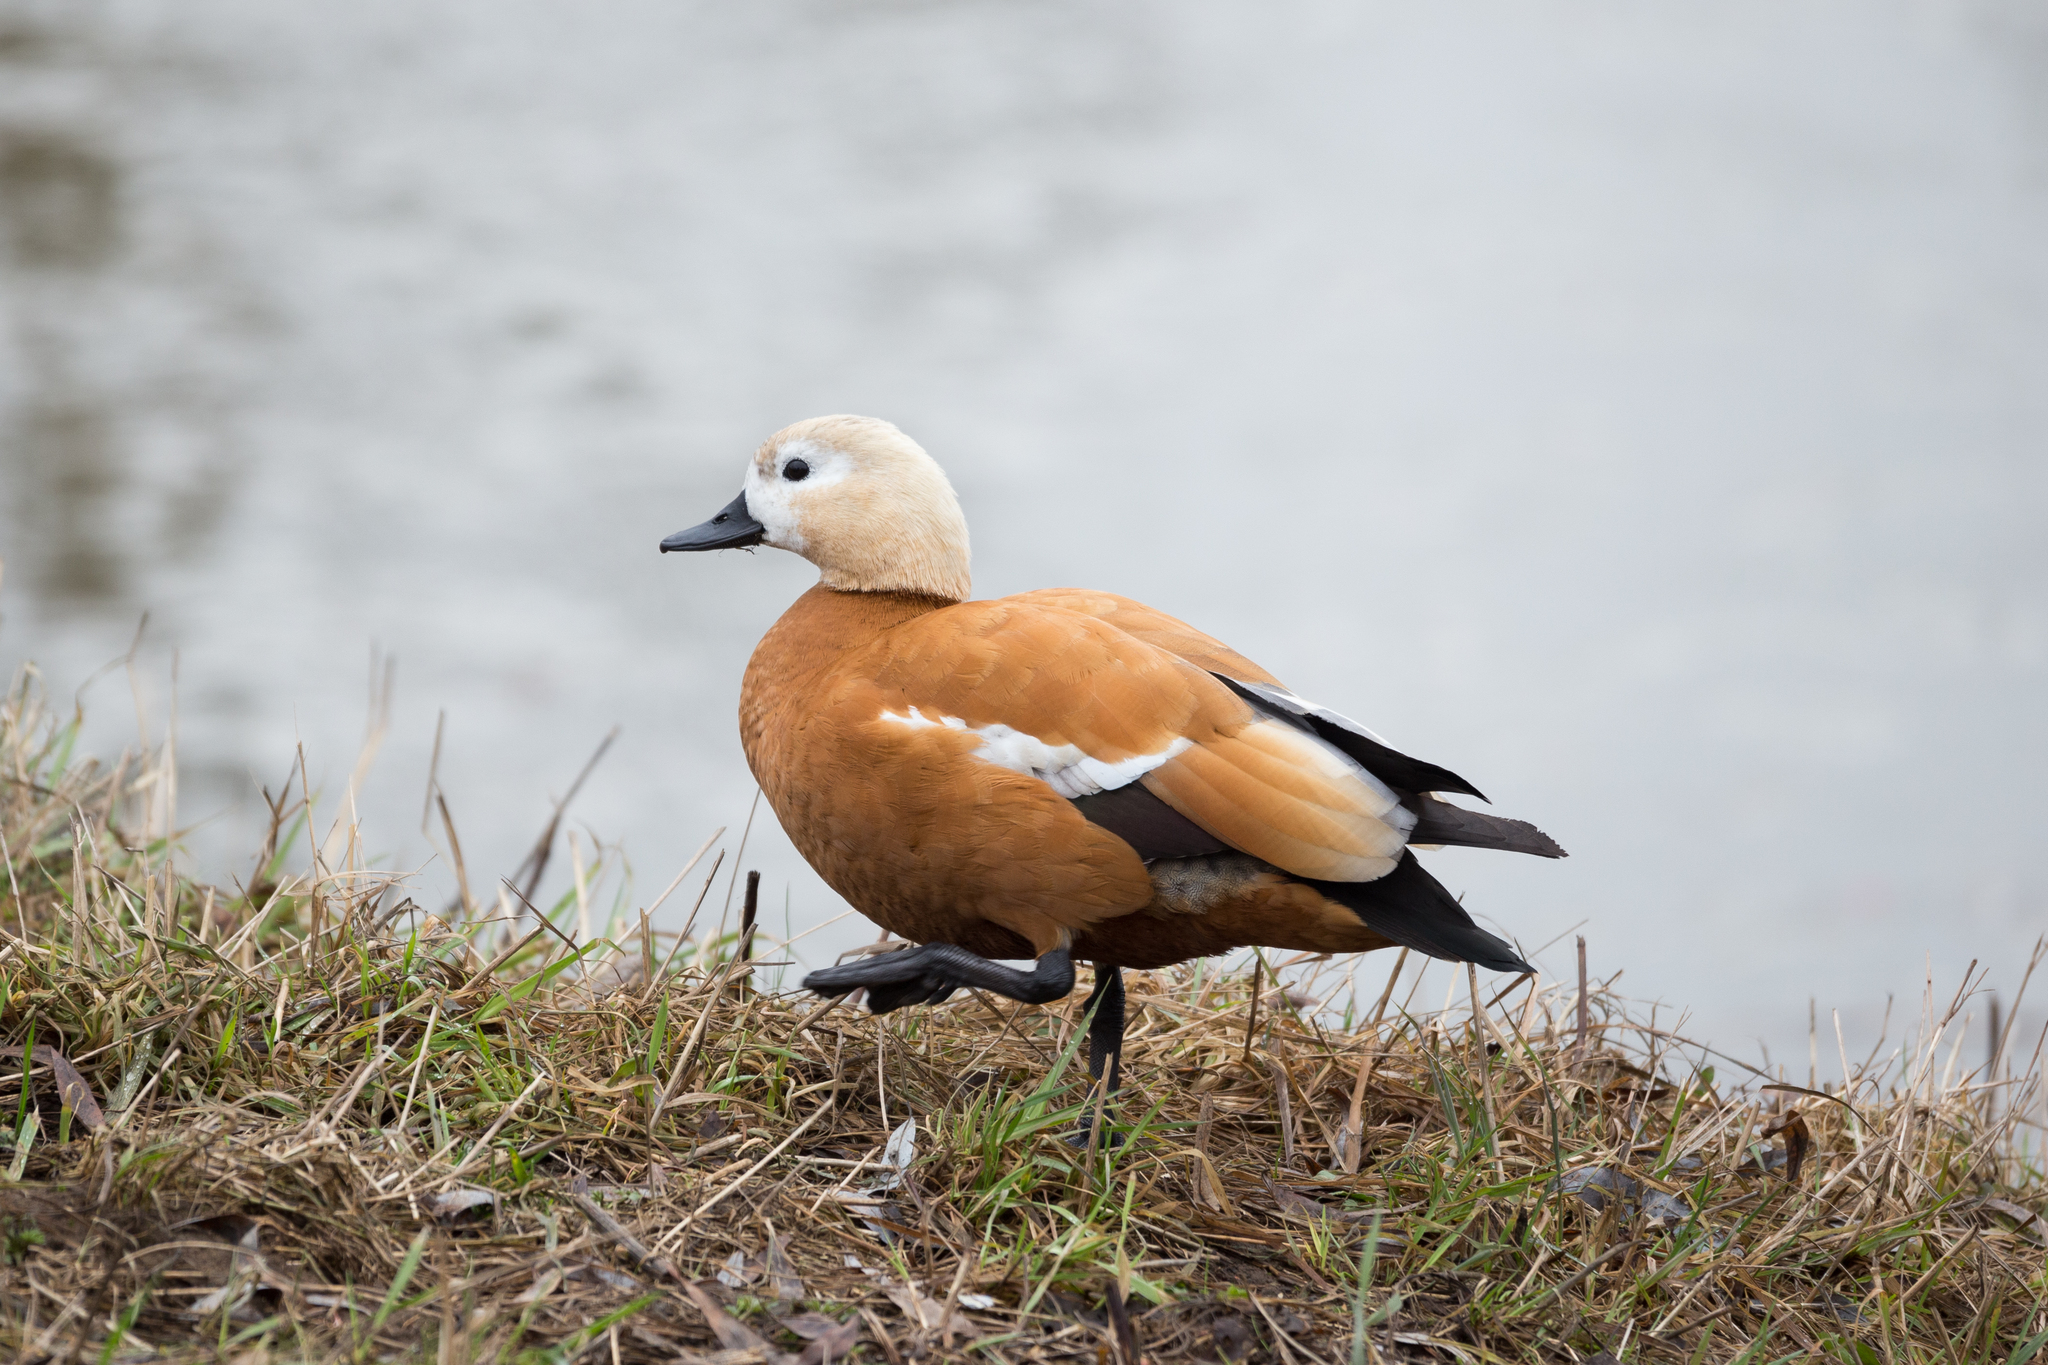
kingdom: Animalia
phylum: Chordata
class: Aves
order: Anseriformes
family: Anatidae
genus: Tadorna
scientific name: Tadorna ferruginea
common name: Ruddy shelduck
